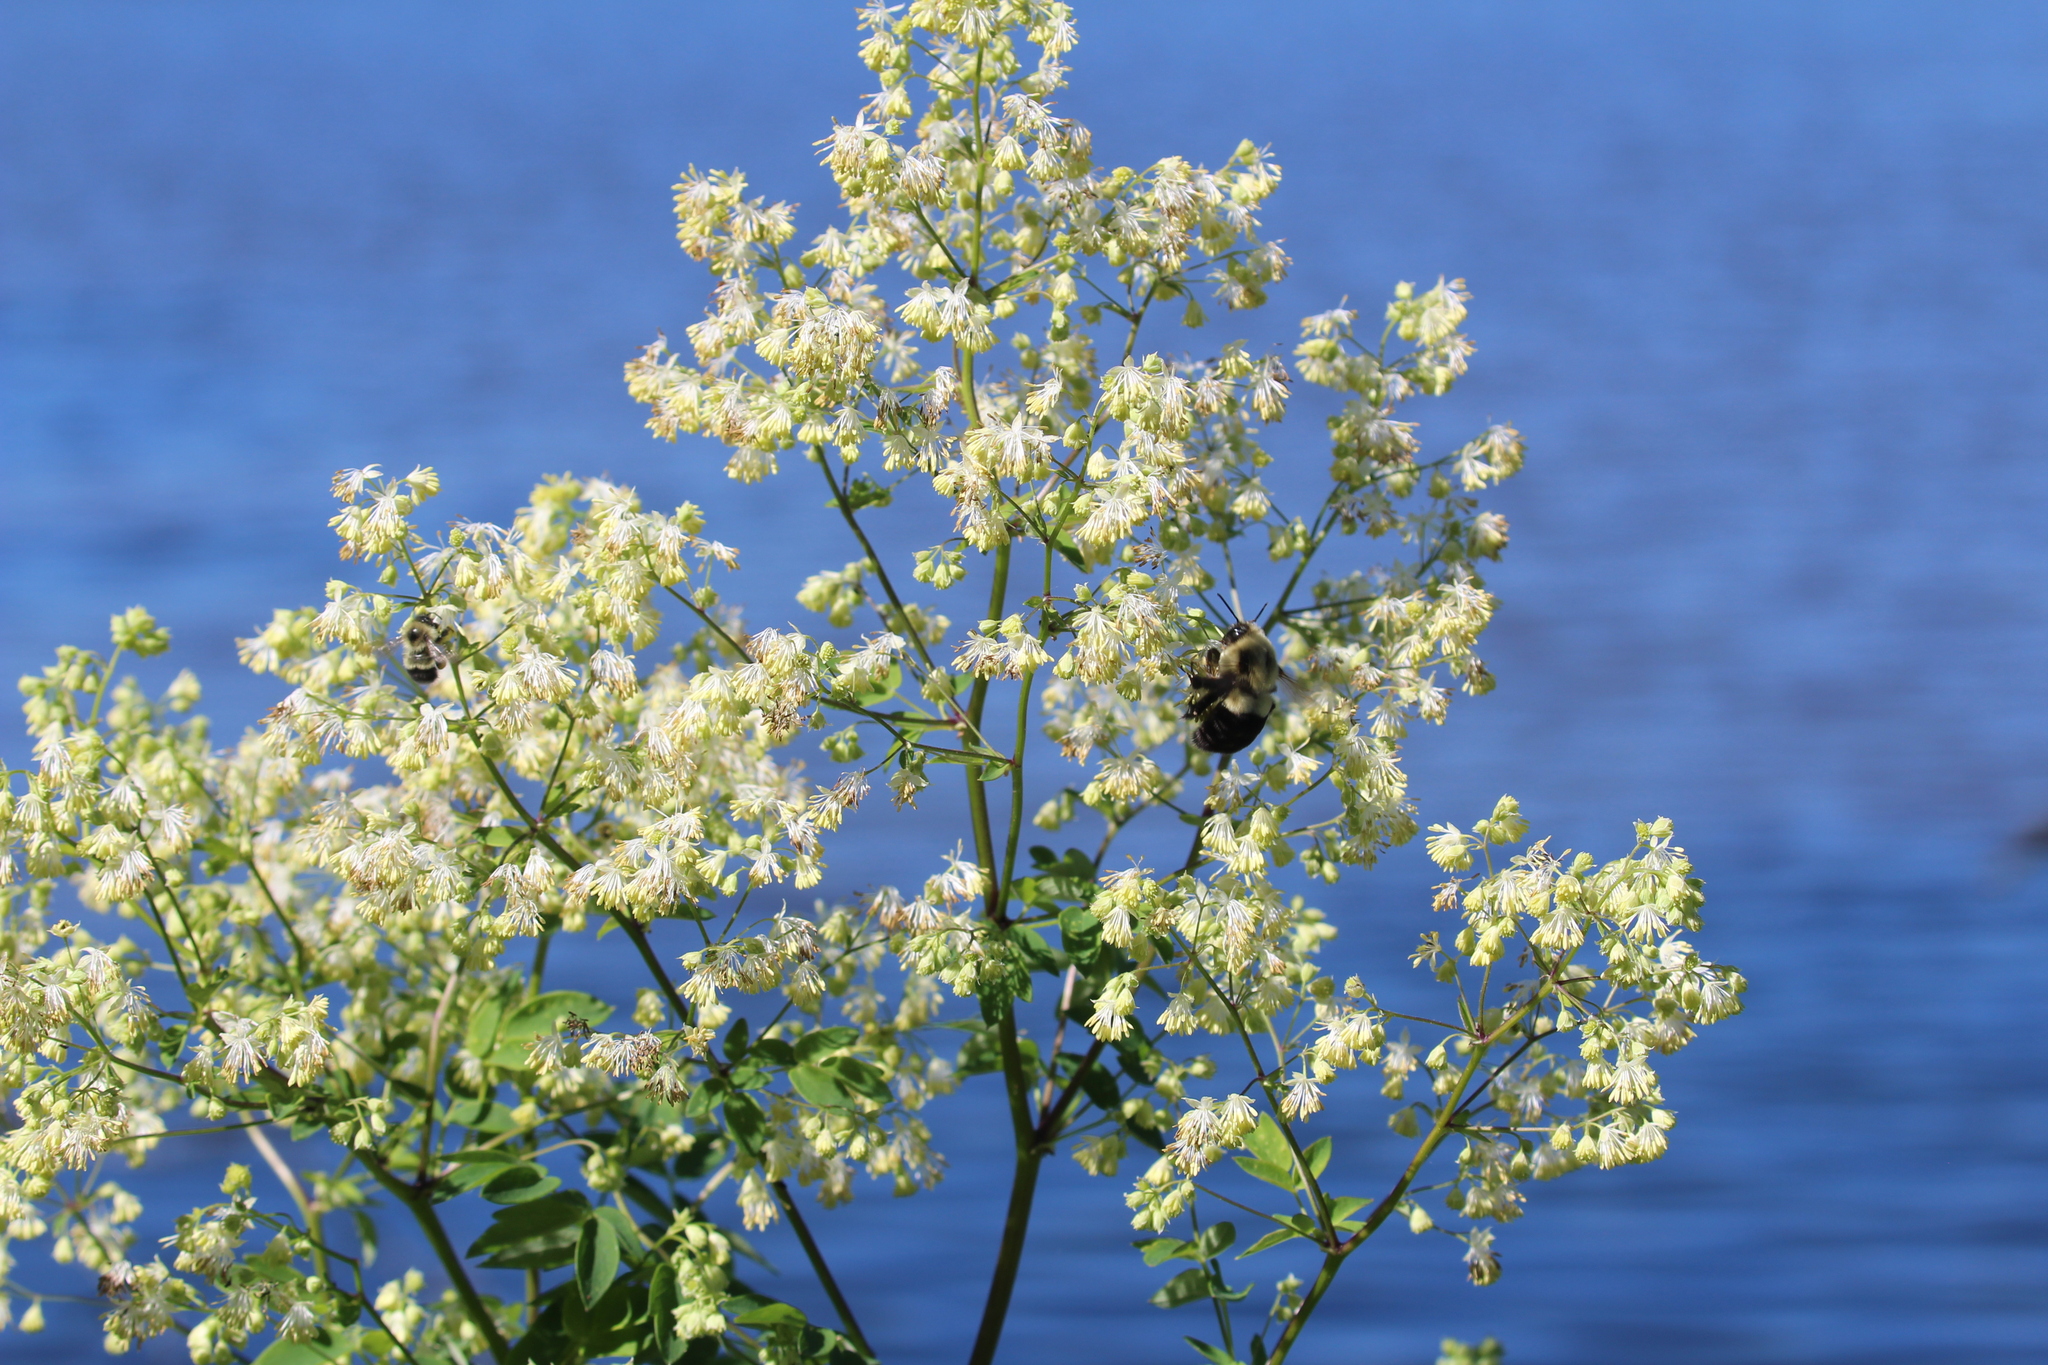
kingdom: Animalia
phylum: Arthropoda
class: Insecta
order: Hymenoptera
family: Apidae
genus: Bombus
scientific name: Bombus impatiens
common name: Common eastern bumble bee
